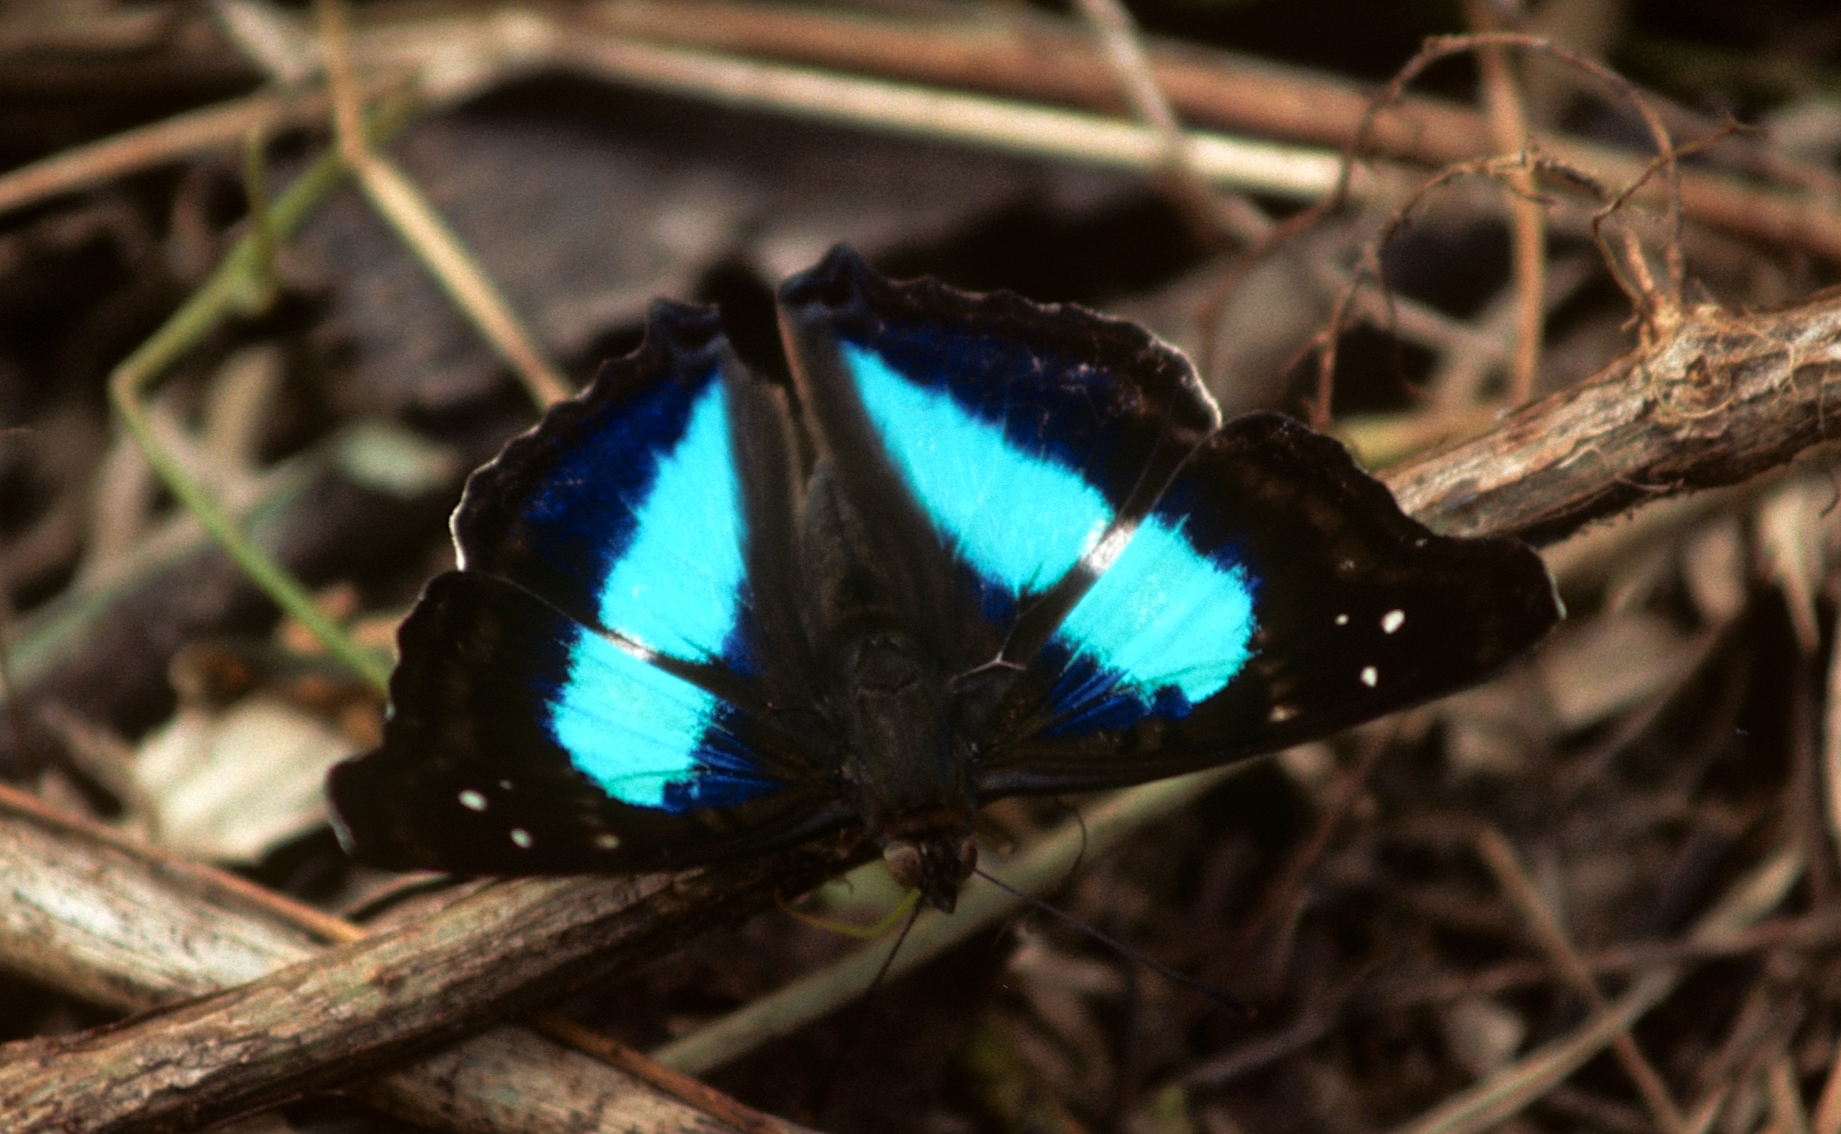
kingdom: Animalia
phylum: Arthropoda
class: Insecta
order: Lepidoptera
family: Nymphalidae
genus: Doxocopa
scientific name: Doxocopa laurentia
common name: Turquoise emperor
